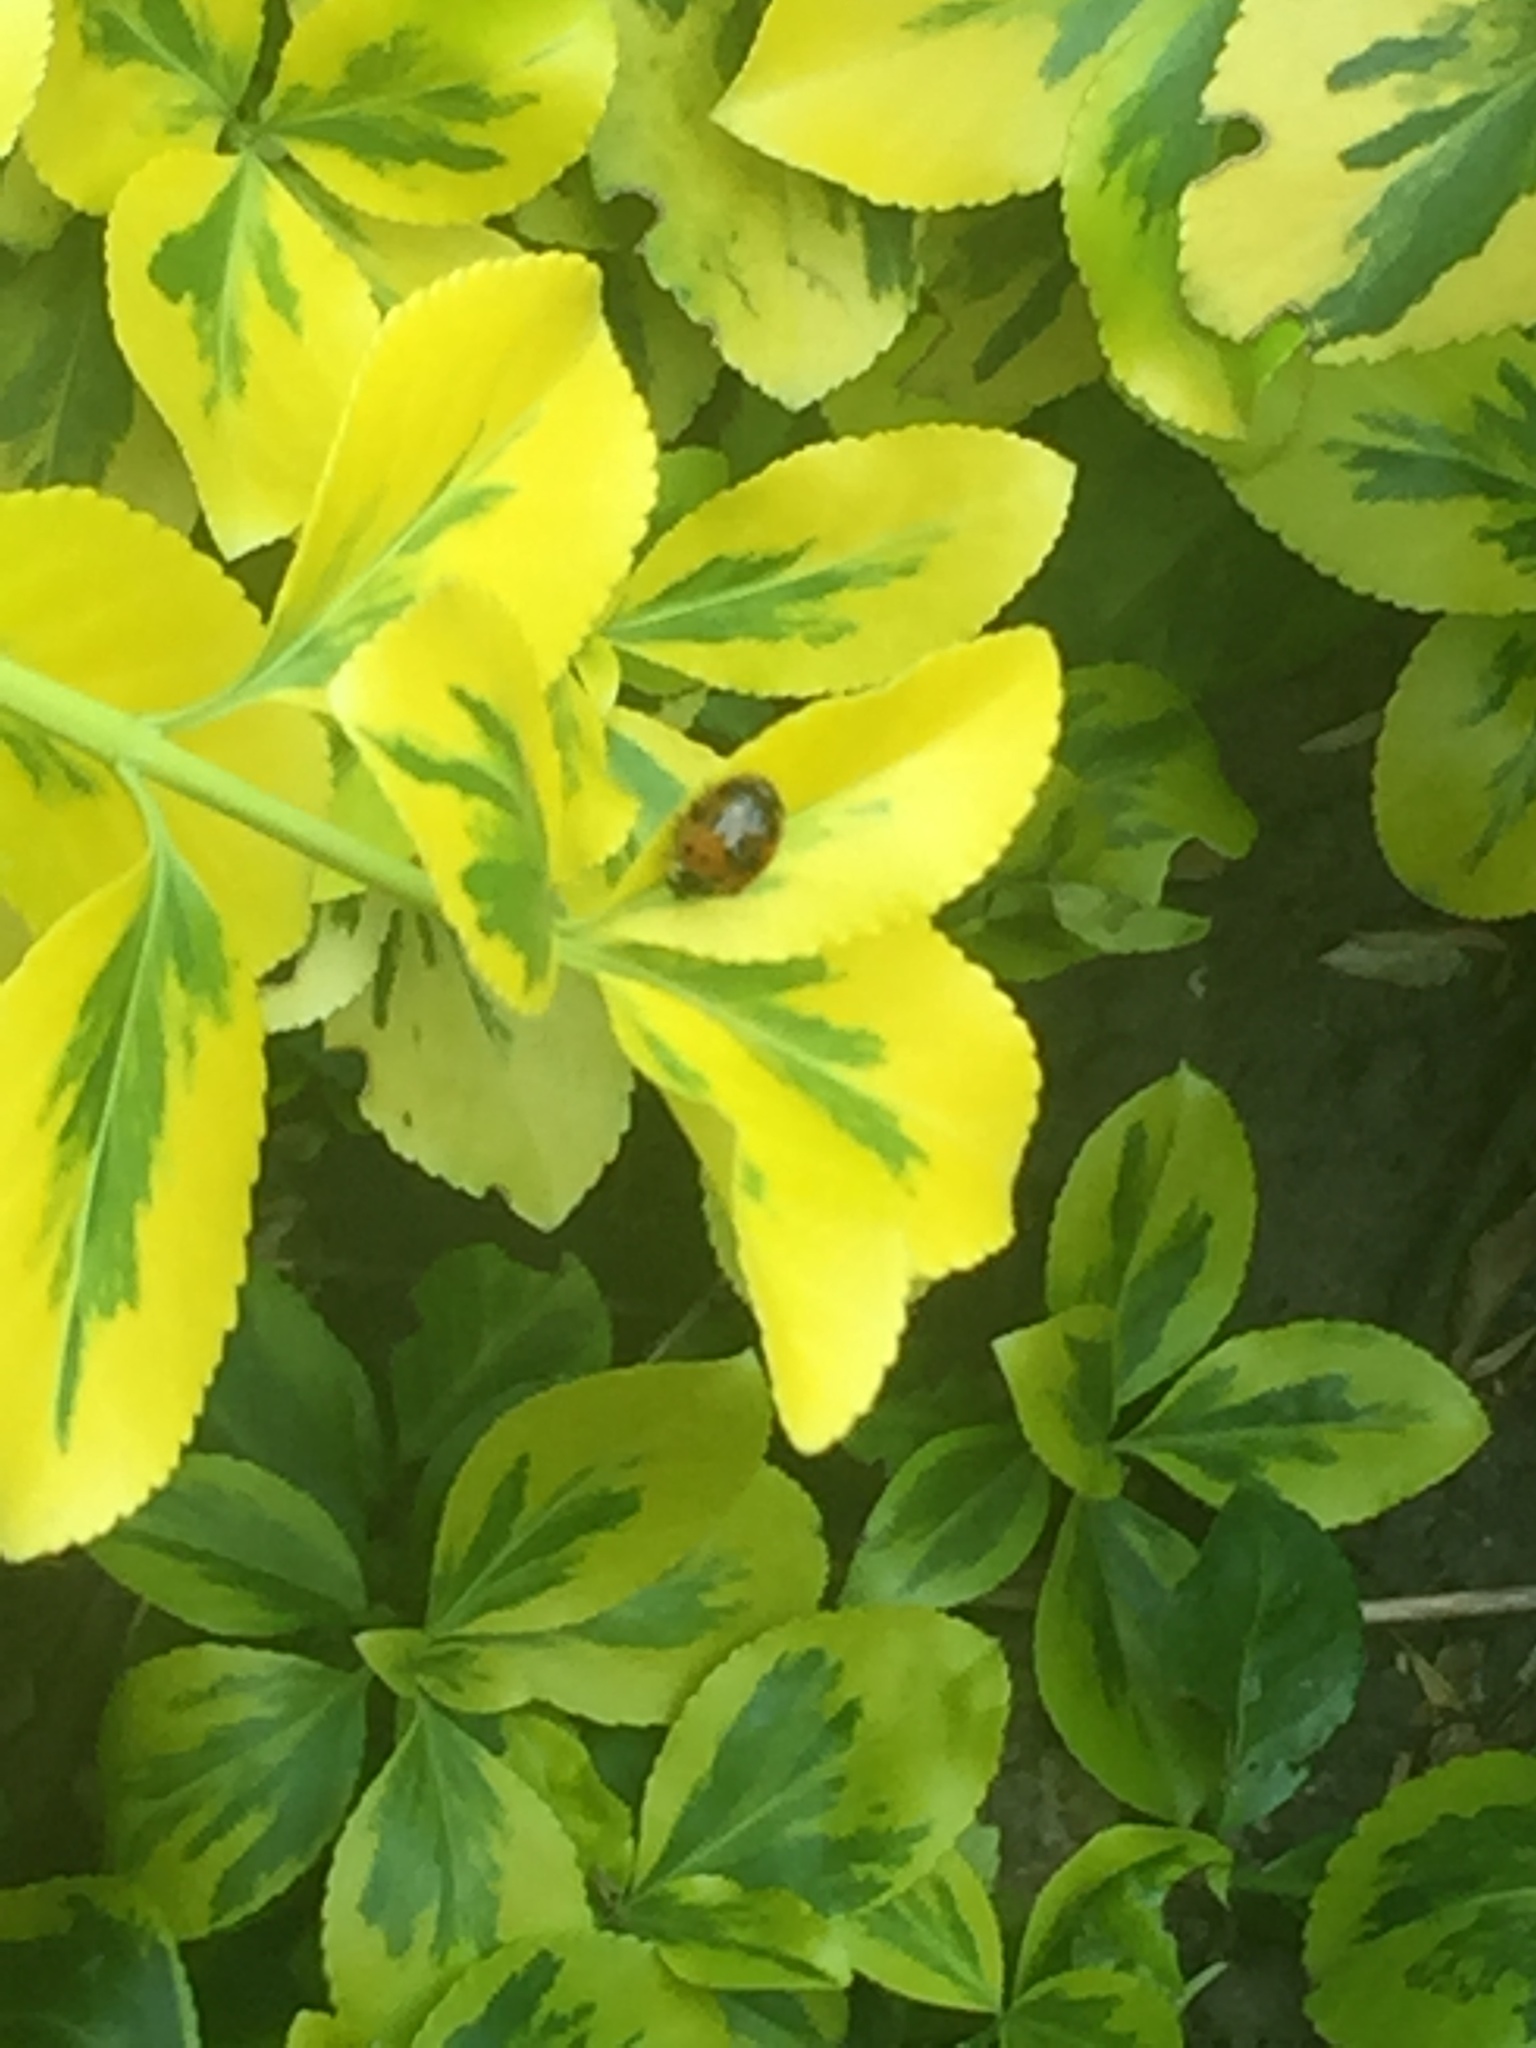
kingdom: Animalia
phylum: Arthropoda
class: Insecta
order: Coleoptera
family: Coccinellidae
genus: Harmonia
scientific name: Harmonia axyridis
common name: Harlequin ladybird
